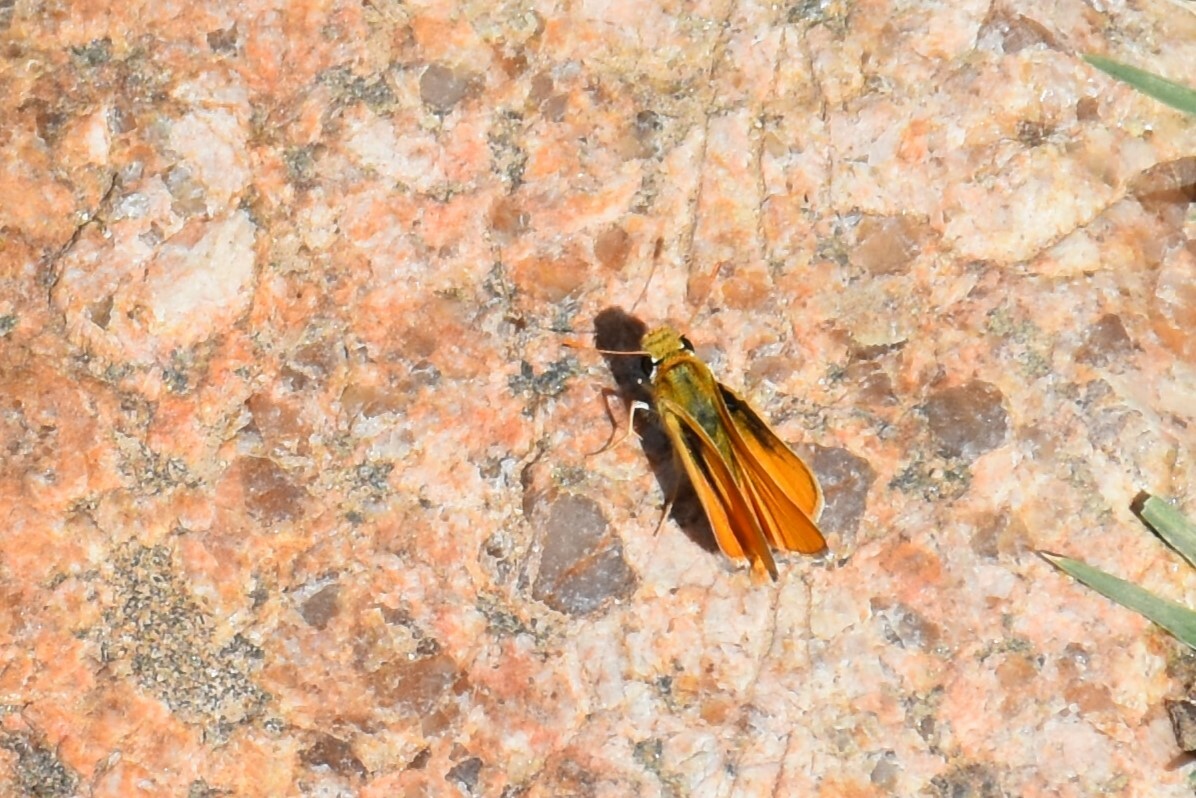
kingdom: Animalia
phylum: Arthropoda
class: Insecta
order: Lepidoptera
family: Hesperiidae
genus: Copaeodes
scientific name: Copaeodes aurantiaca
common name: Orange skipperling
